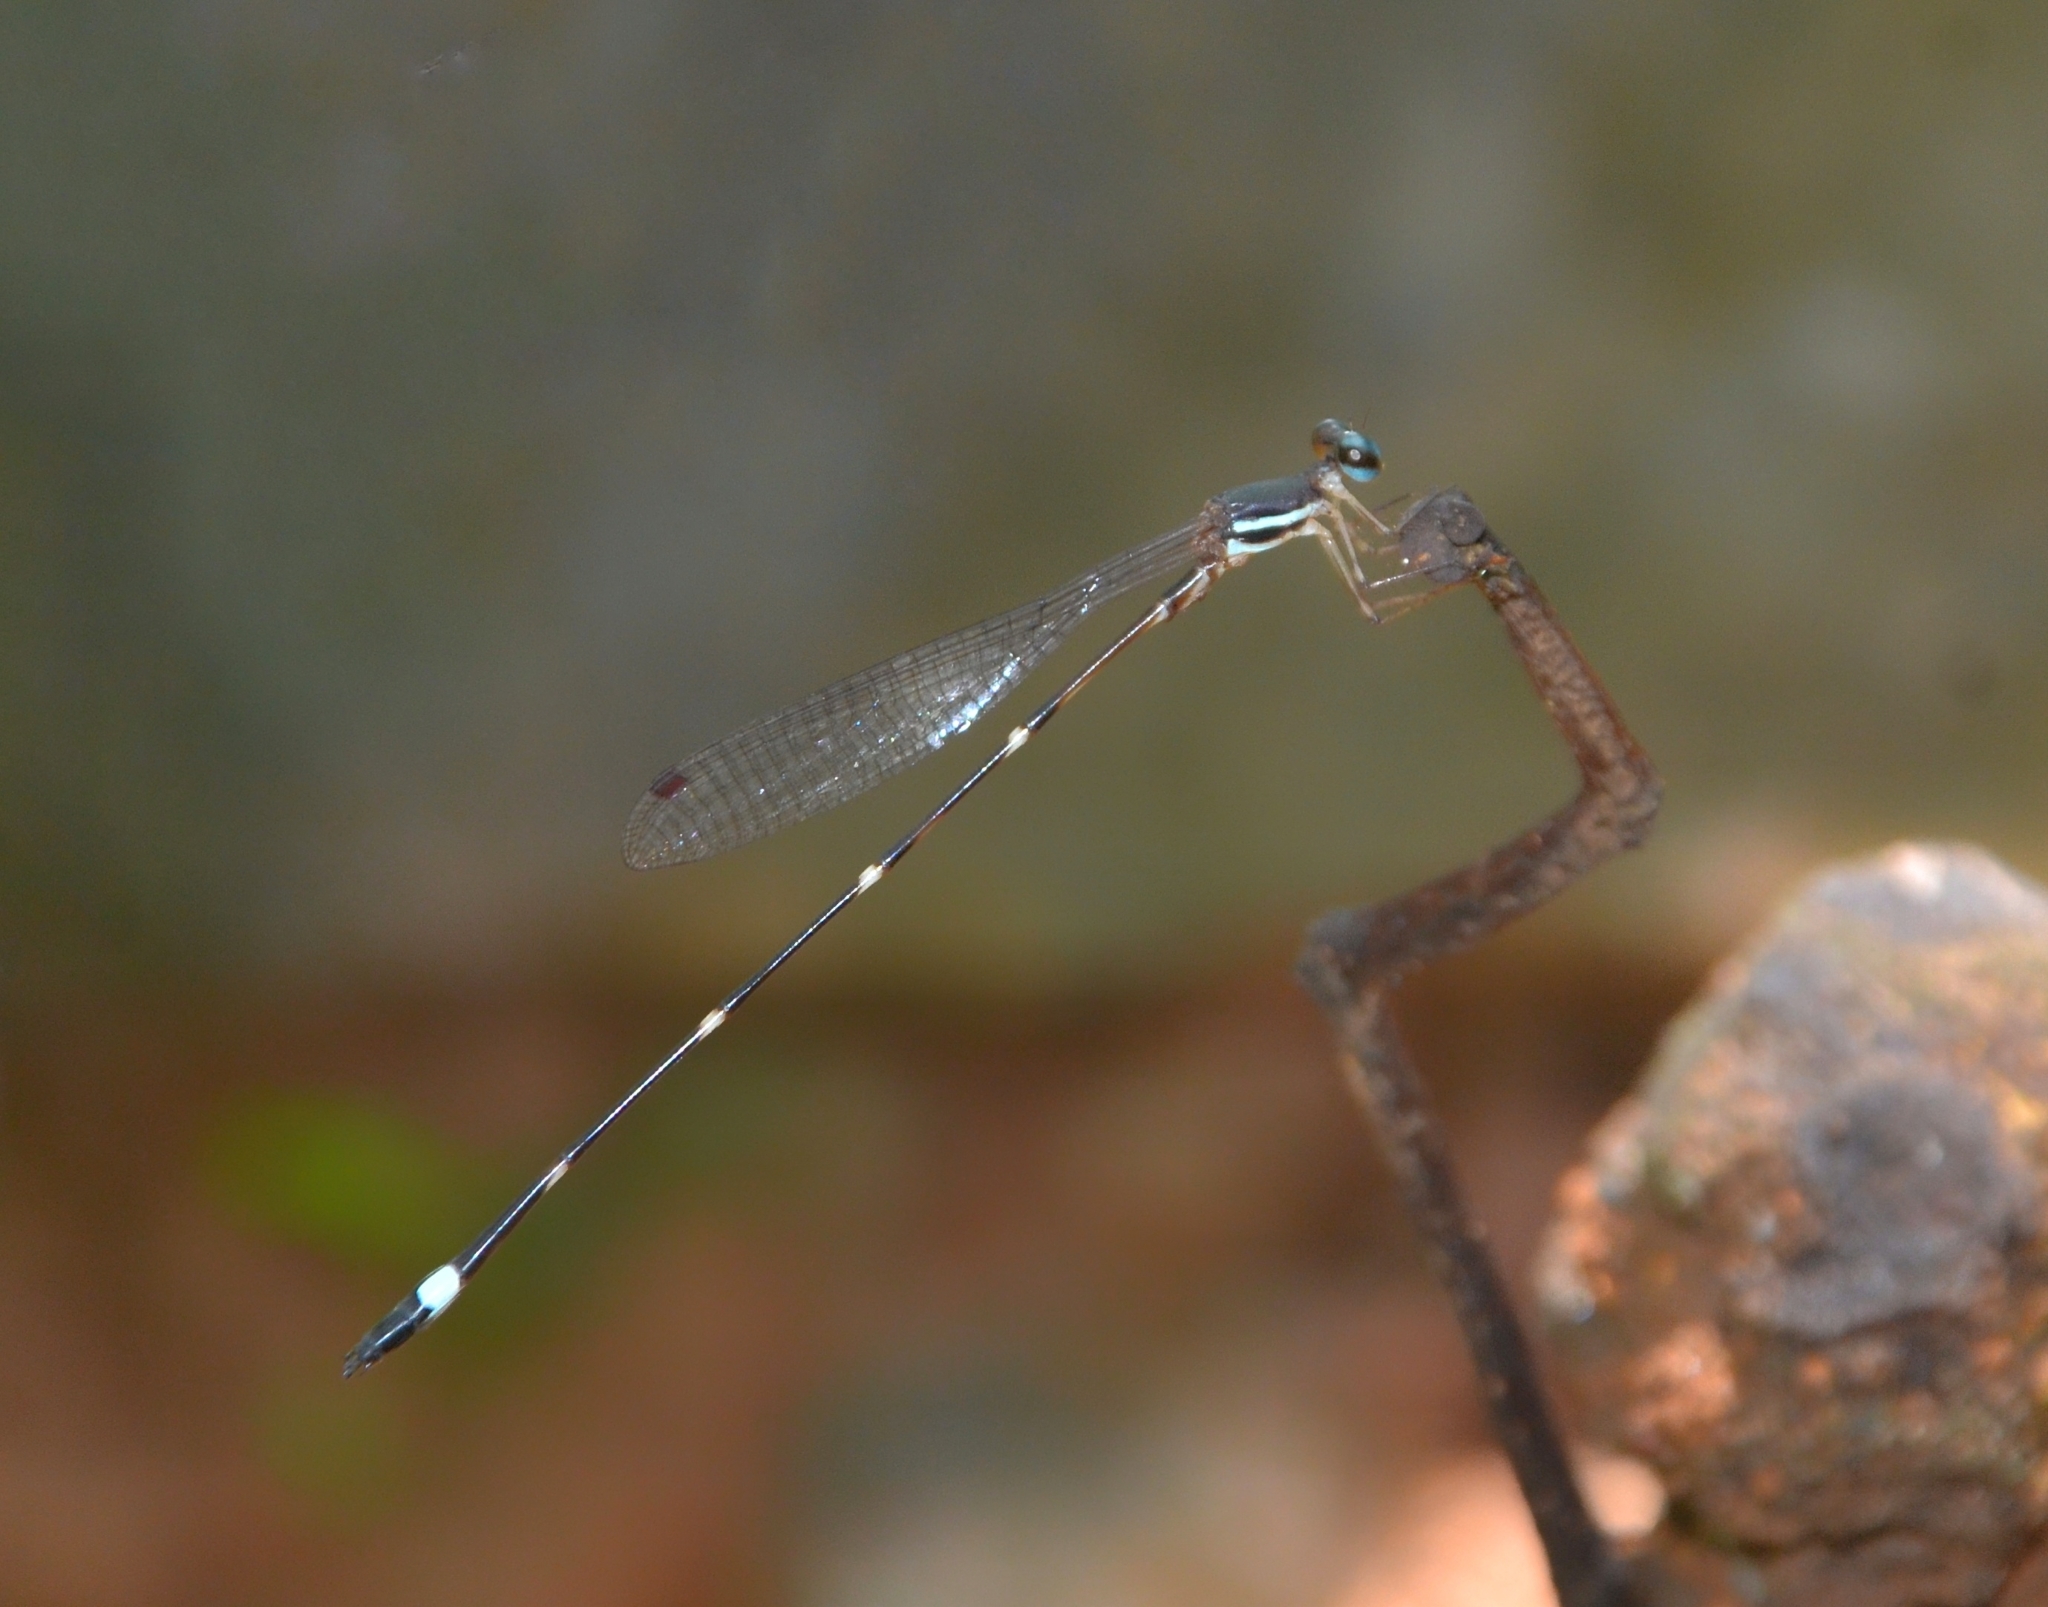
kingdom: Animalia
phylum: Arthropoda
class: Insecta
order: Odonata
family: Platystictidae
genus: Protosticta
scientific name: Protosticta sanguinostigma
